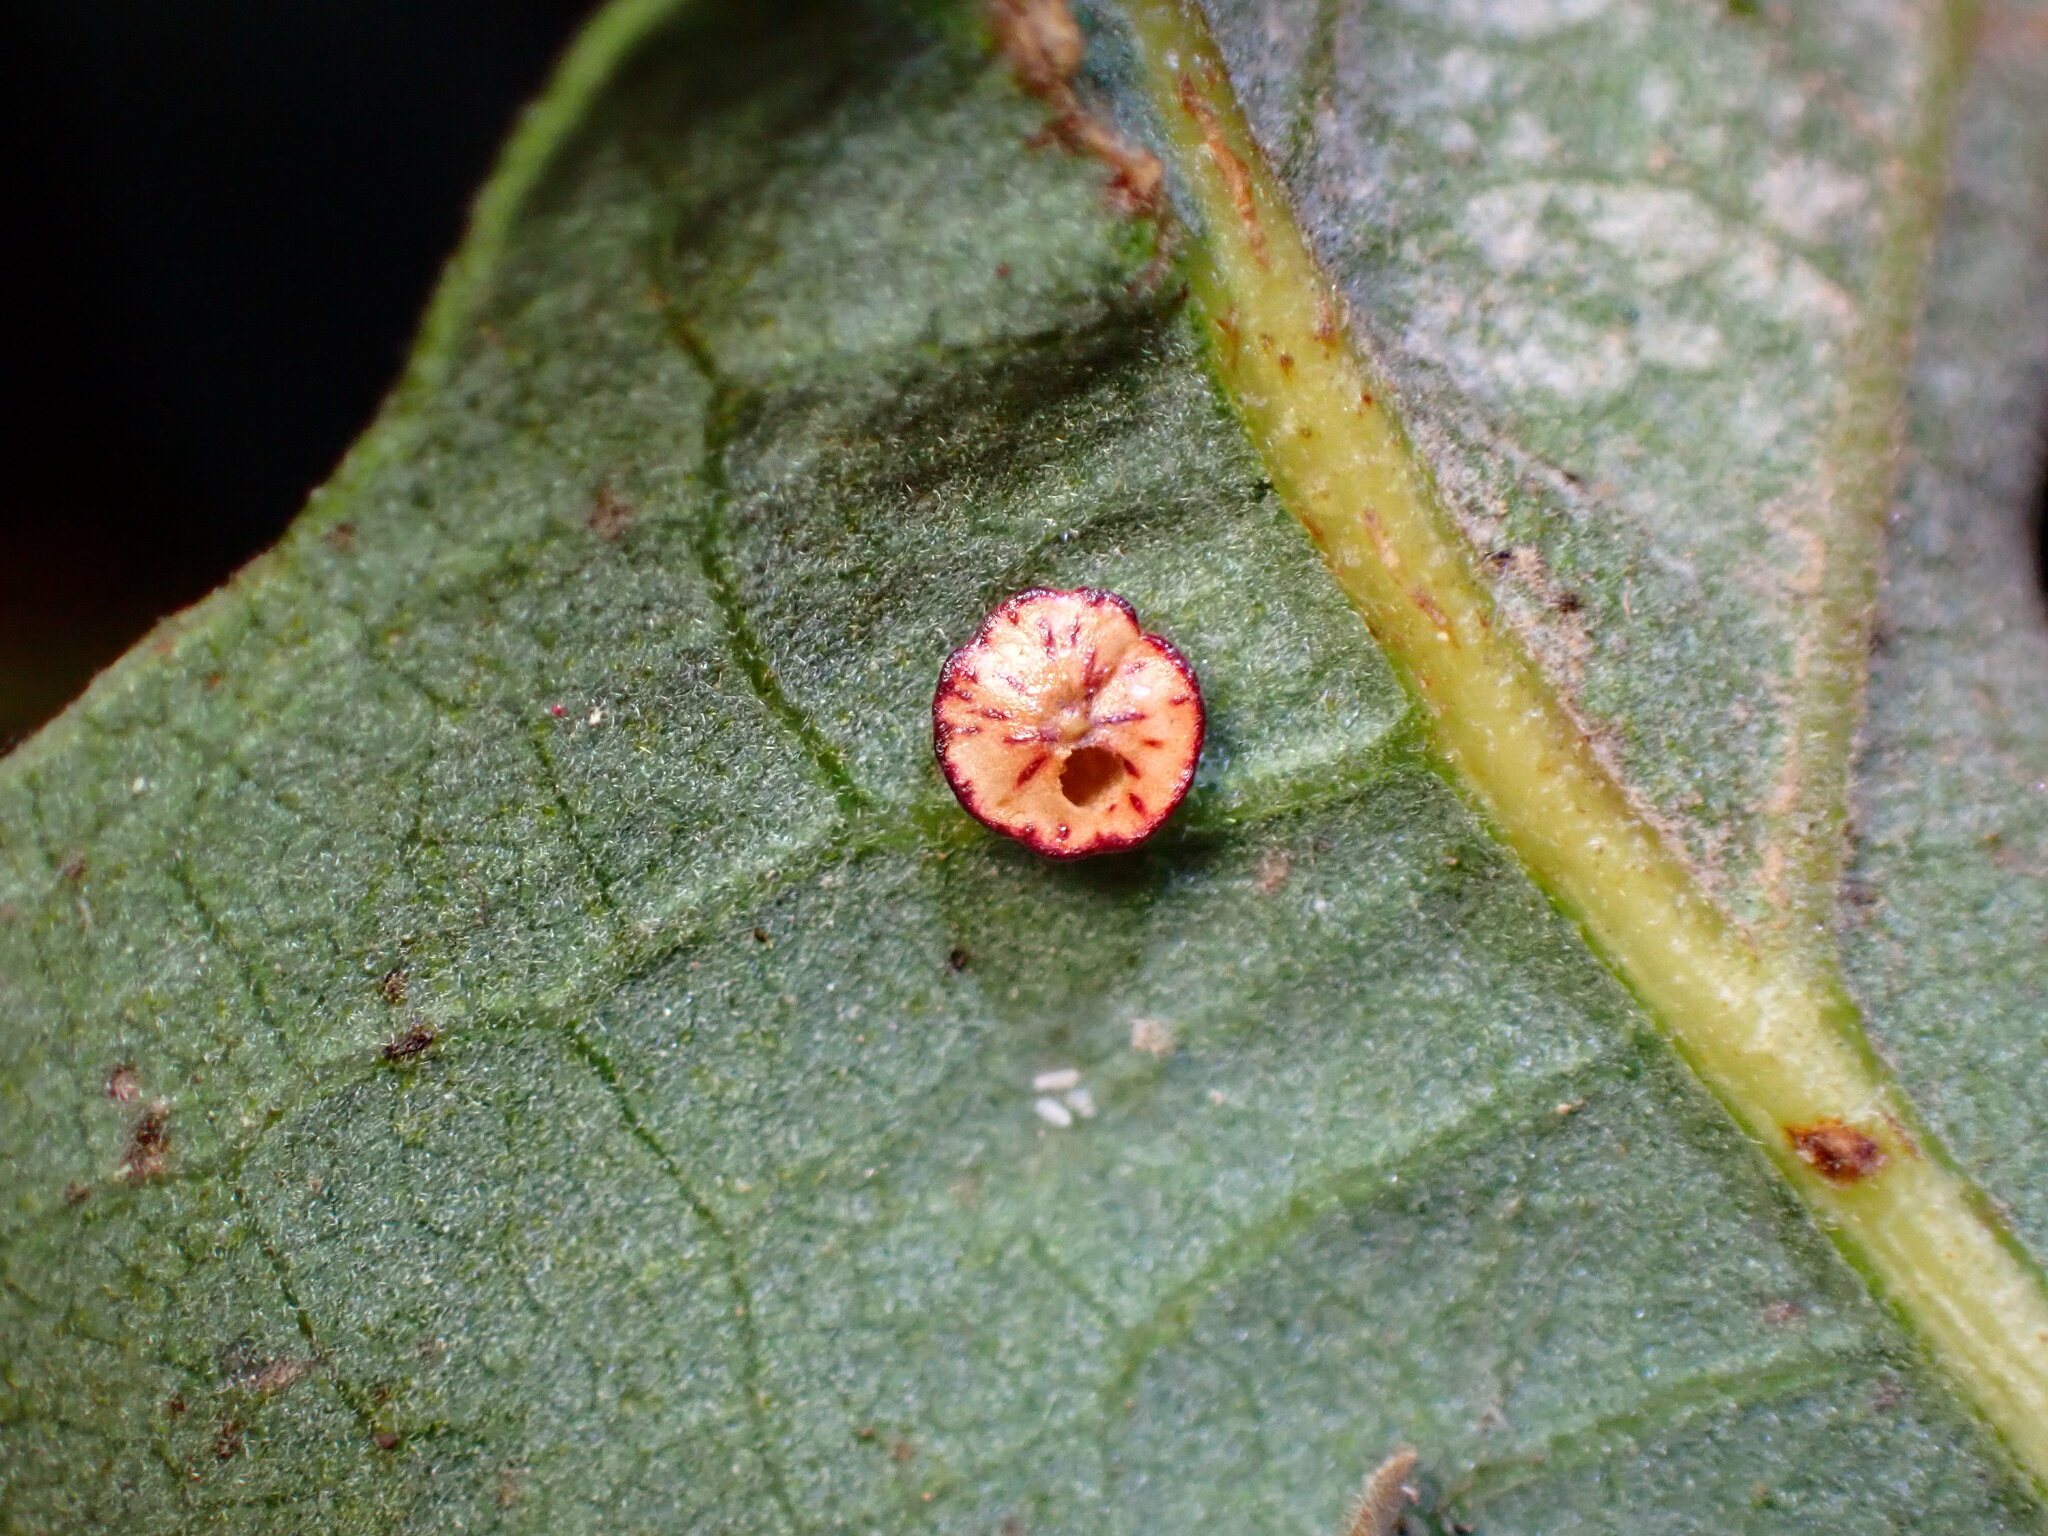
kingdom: Animalia
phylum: Arthropoda
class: Insecta
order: Hymenoptera
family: Cynipidae
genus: Andricus
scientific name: Andricus
